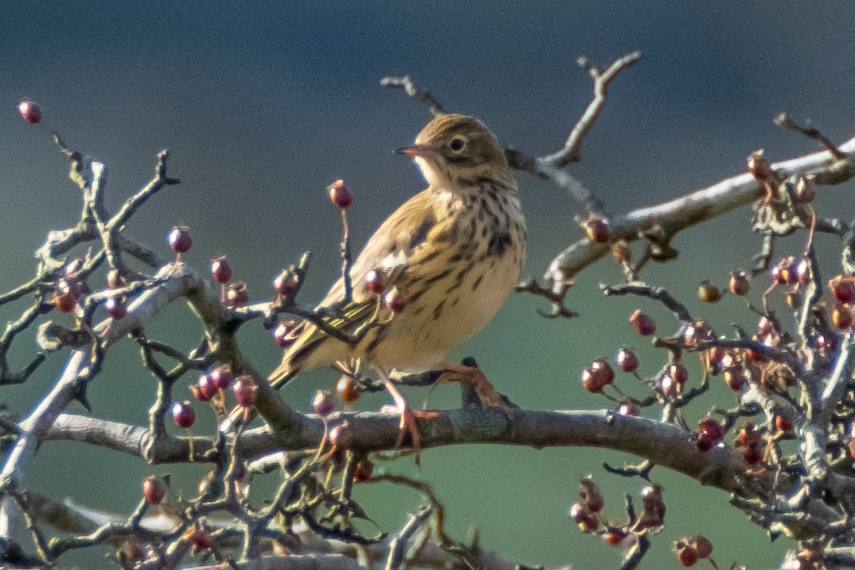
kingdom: Animalia
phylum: Chordata
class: Aves
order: Passeriformes
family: Motacillidae
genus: Anthus
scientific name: Anthus pratensis
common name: Meadow pipit
